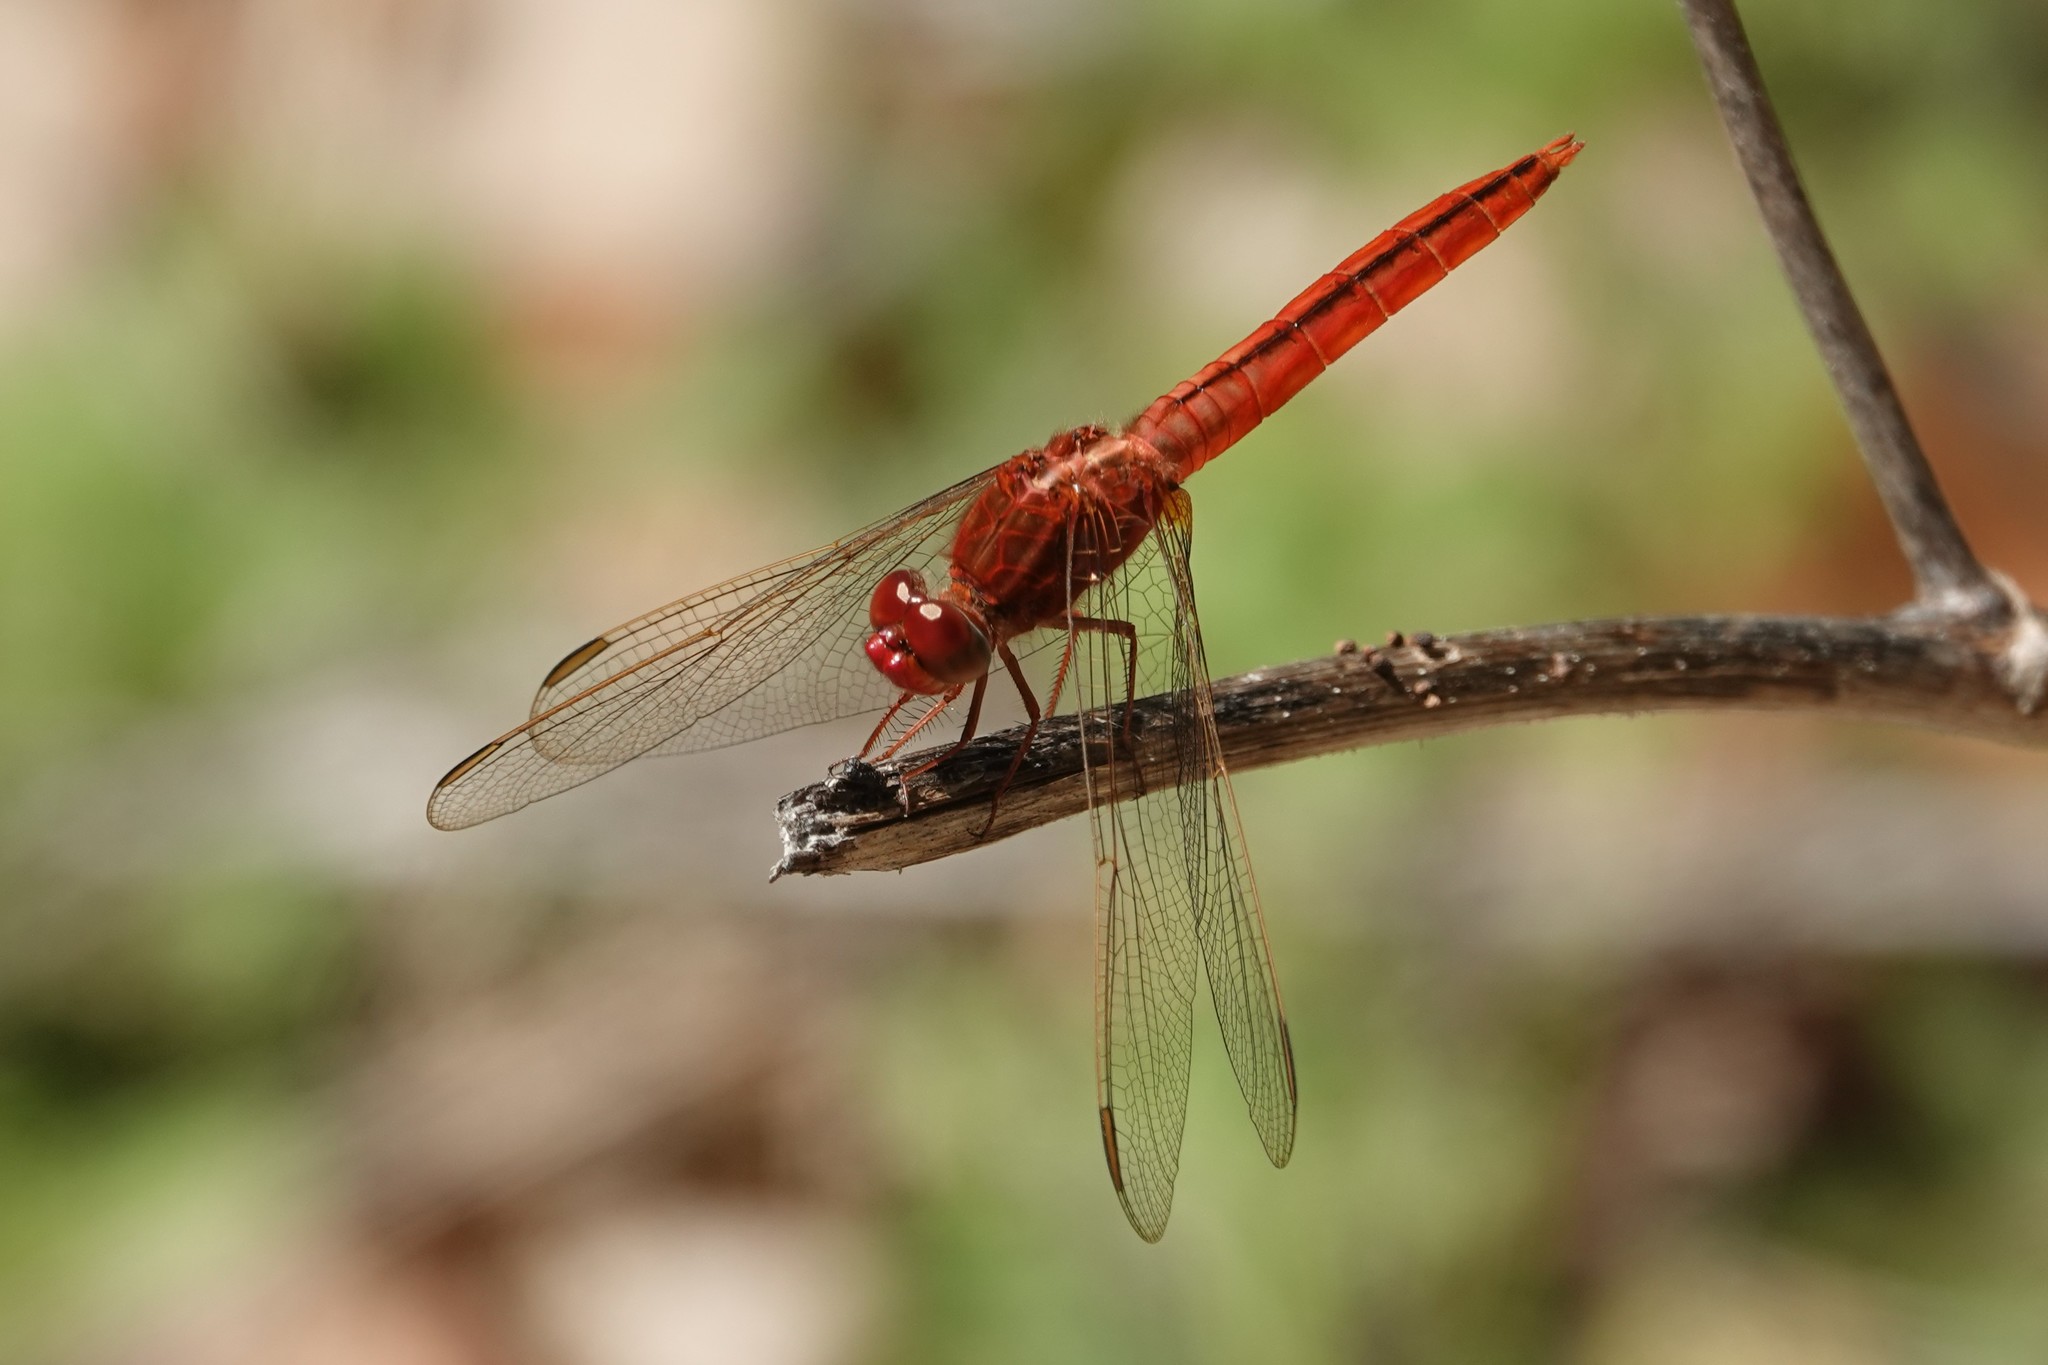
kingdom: Animalia
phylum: Arthropoda
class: Insecta
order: Odonata
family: Libellulidae
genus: Crocothemis
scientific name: Crocothemis servilia
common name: Scarlet skimmer
